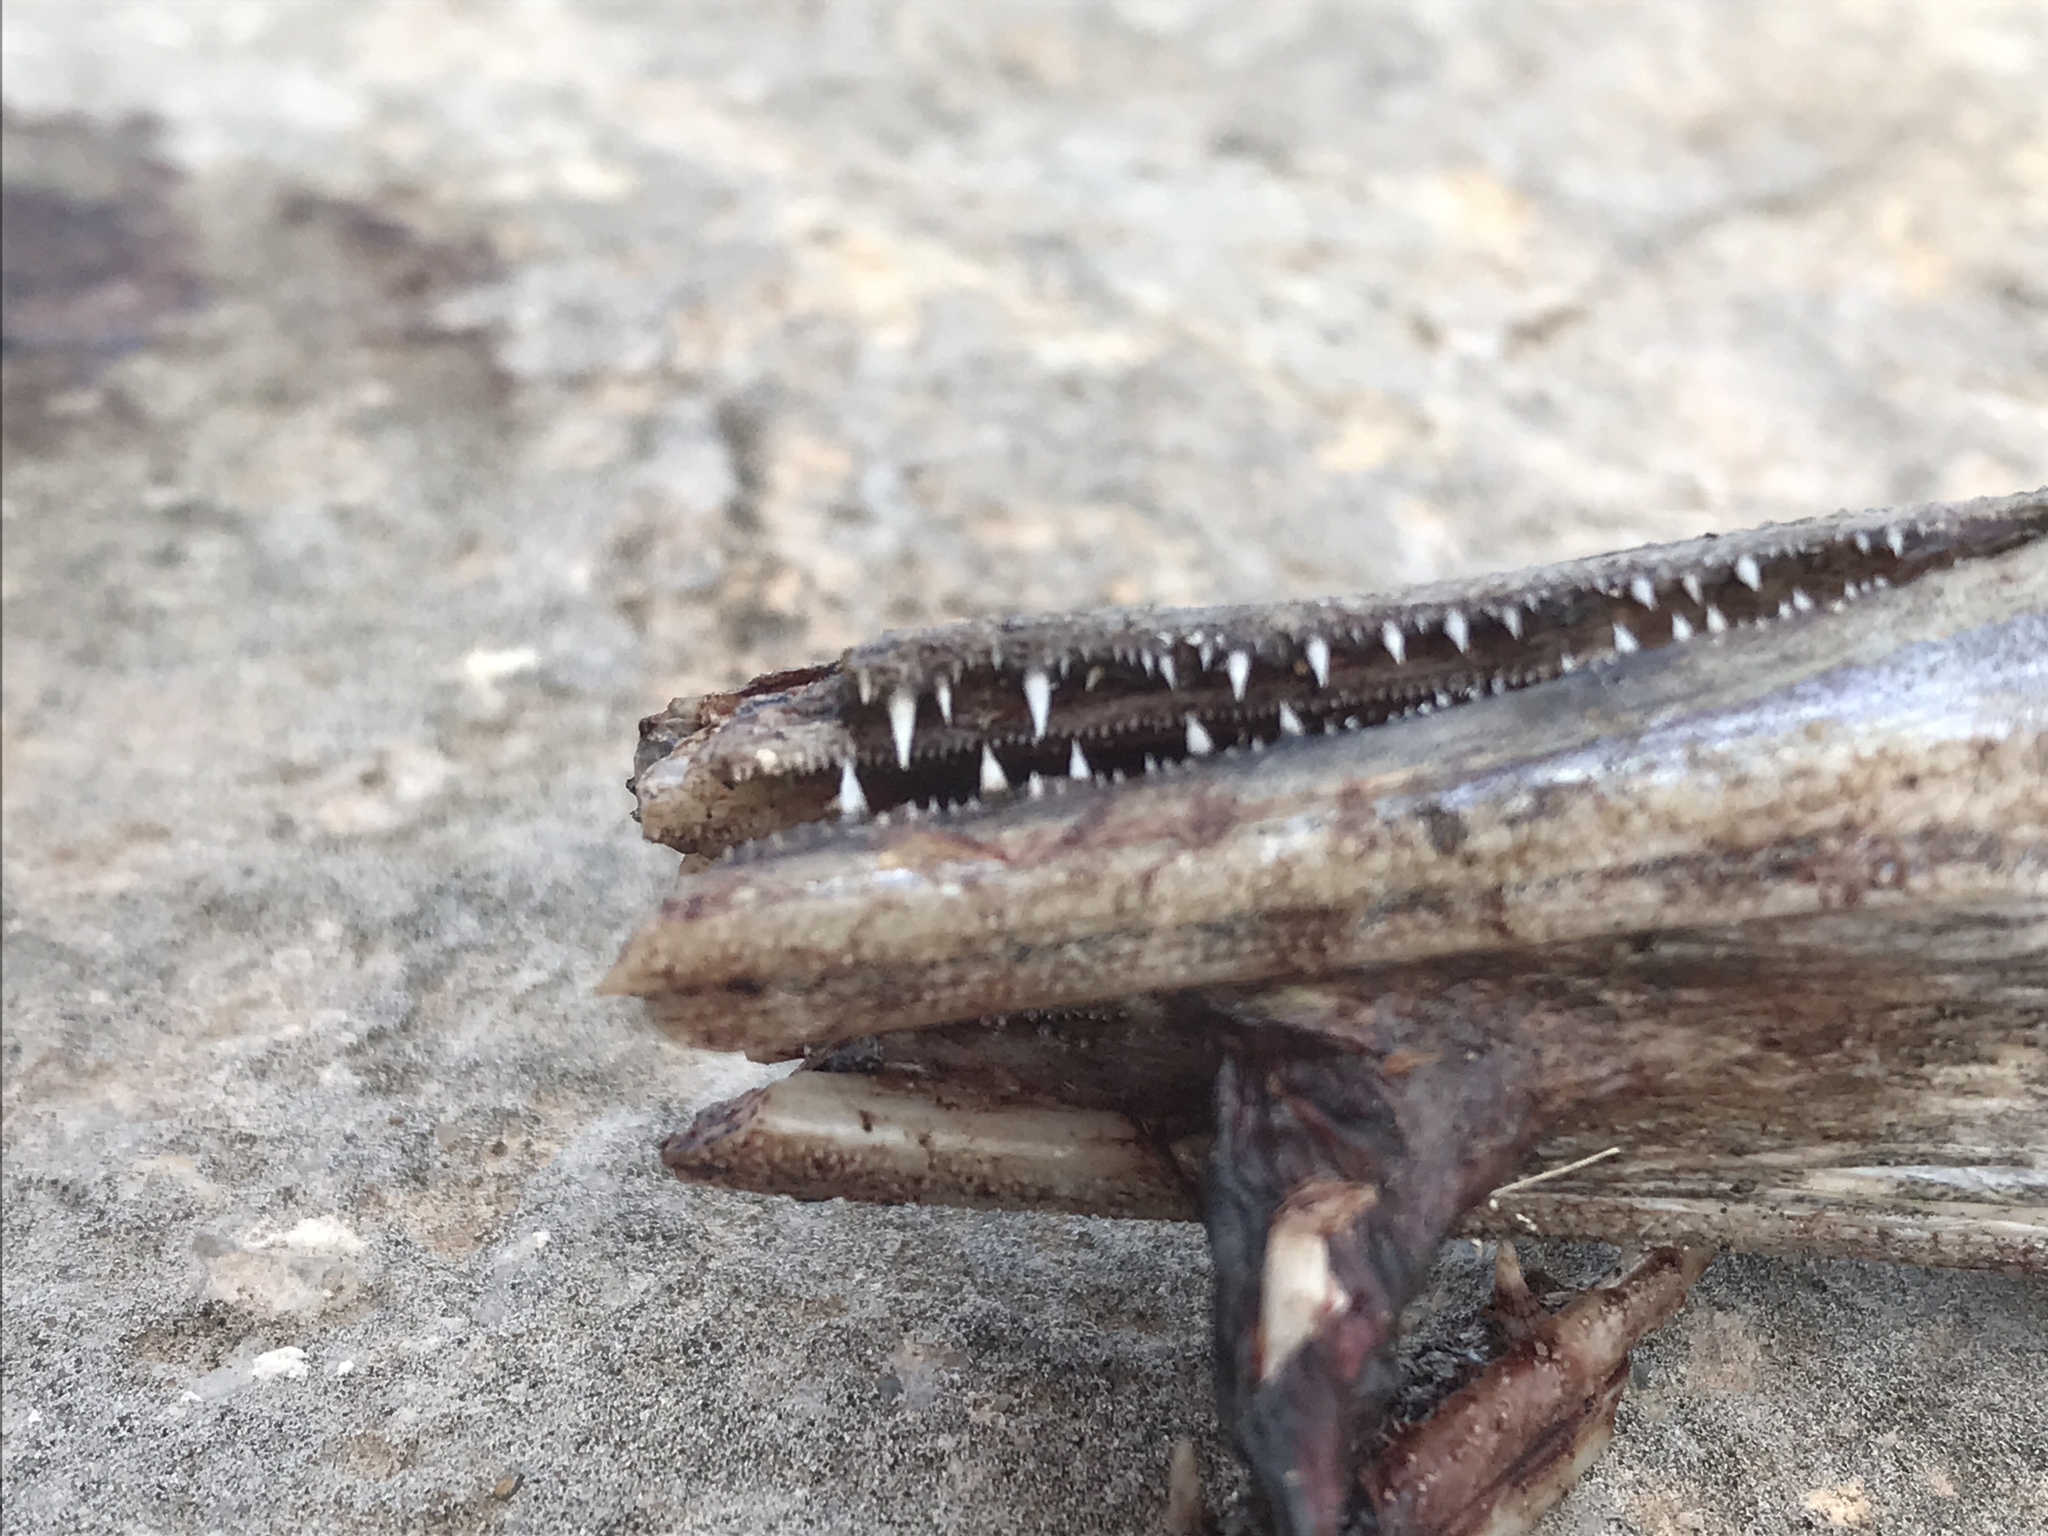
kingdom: Animalia
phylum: Chordata
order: Lepisosteiformes
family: Lepisosteidae
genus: Lepisosteus
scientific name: Lepisosteus oculatus
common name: Spotted gar
